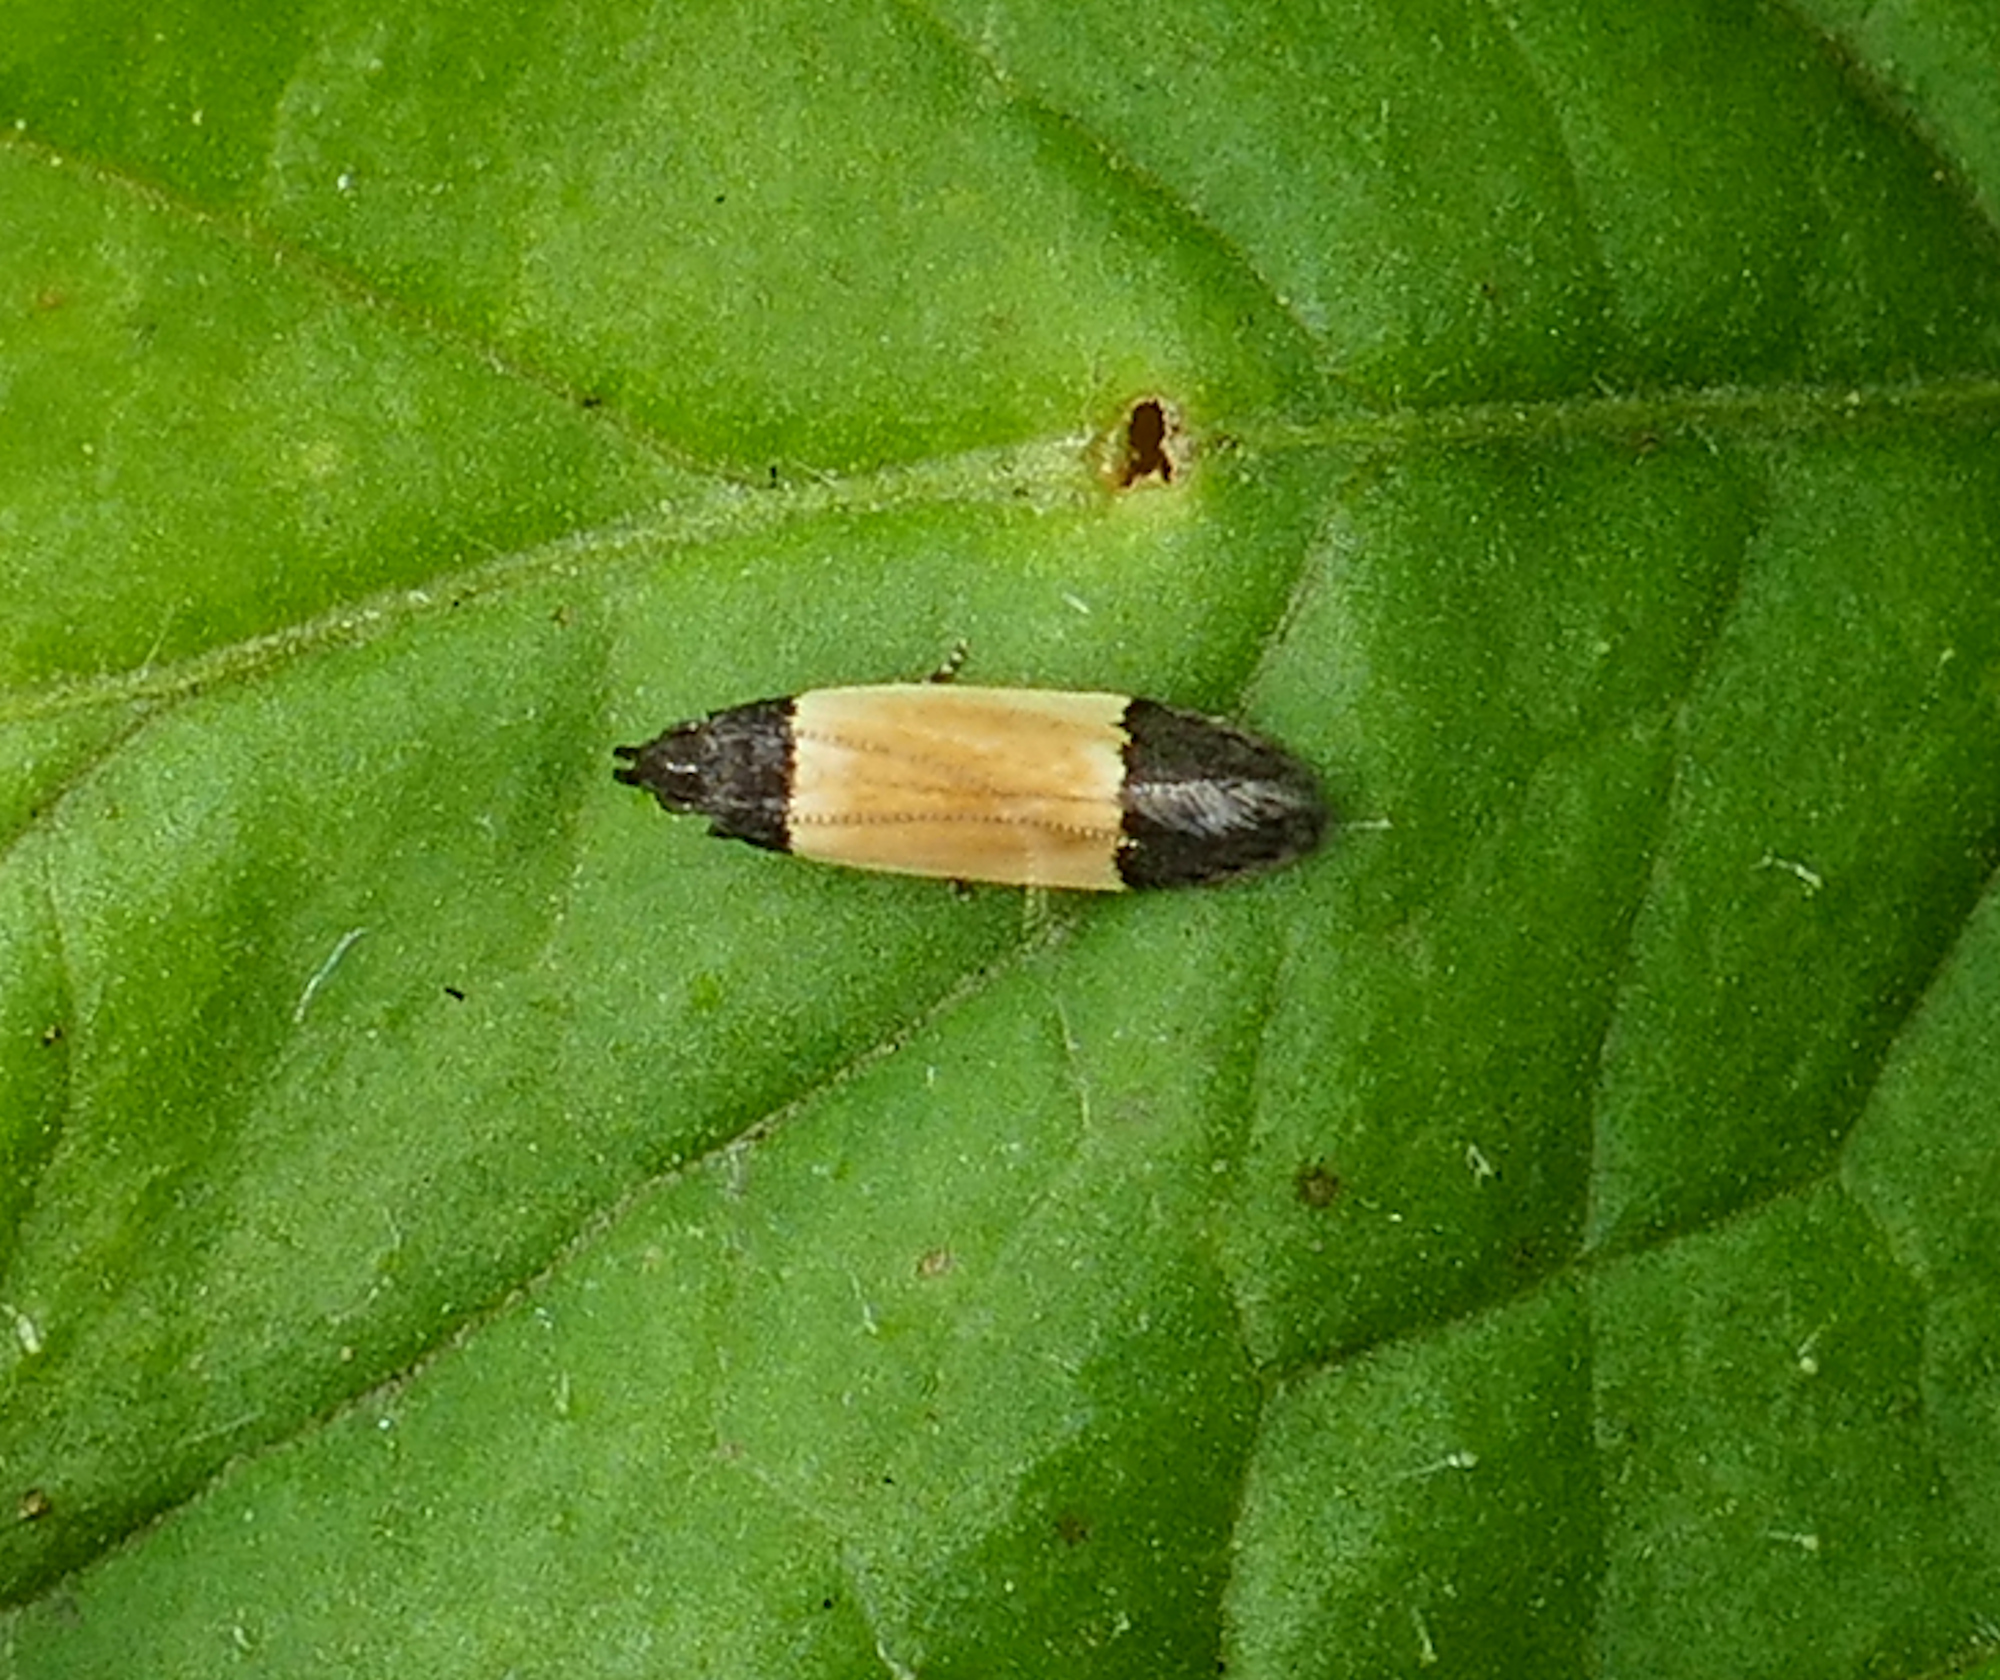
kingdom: Animalia
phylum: Arthropoda
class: Insecta
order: Lepidoptera
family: Gelechiidae
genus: Anacampsis
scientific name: Anacampsis coverdalella
